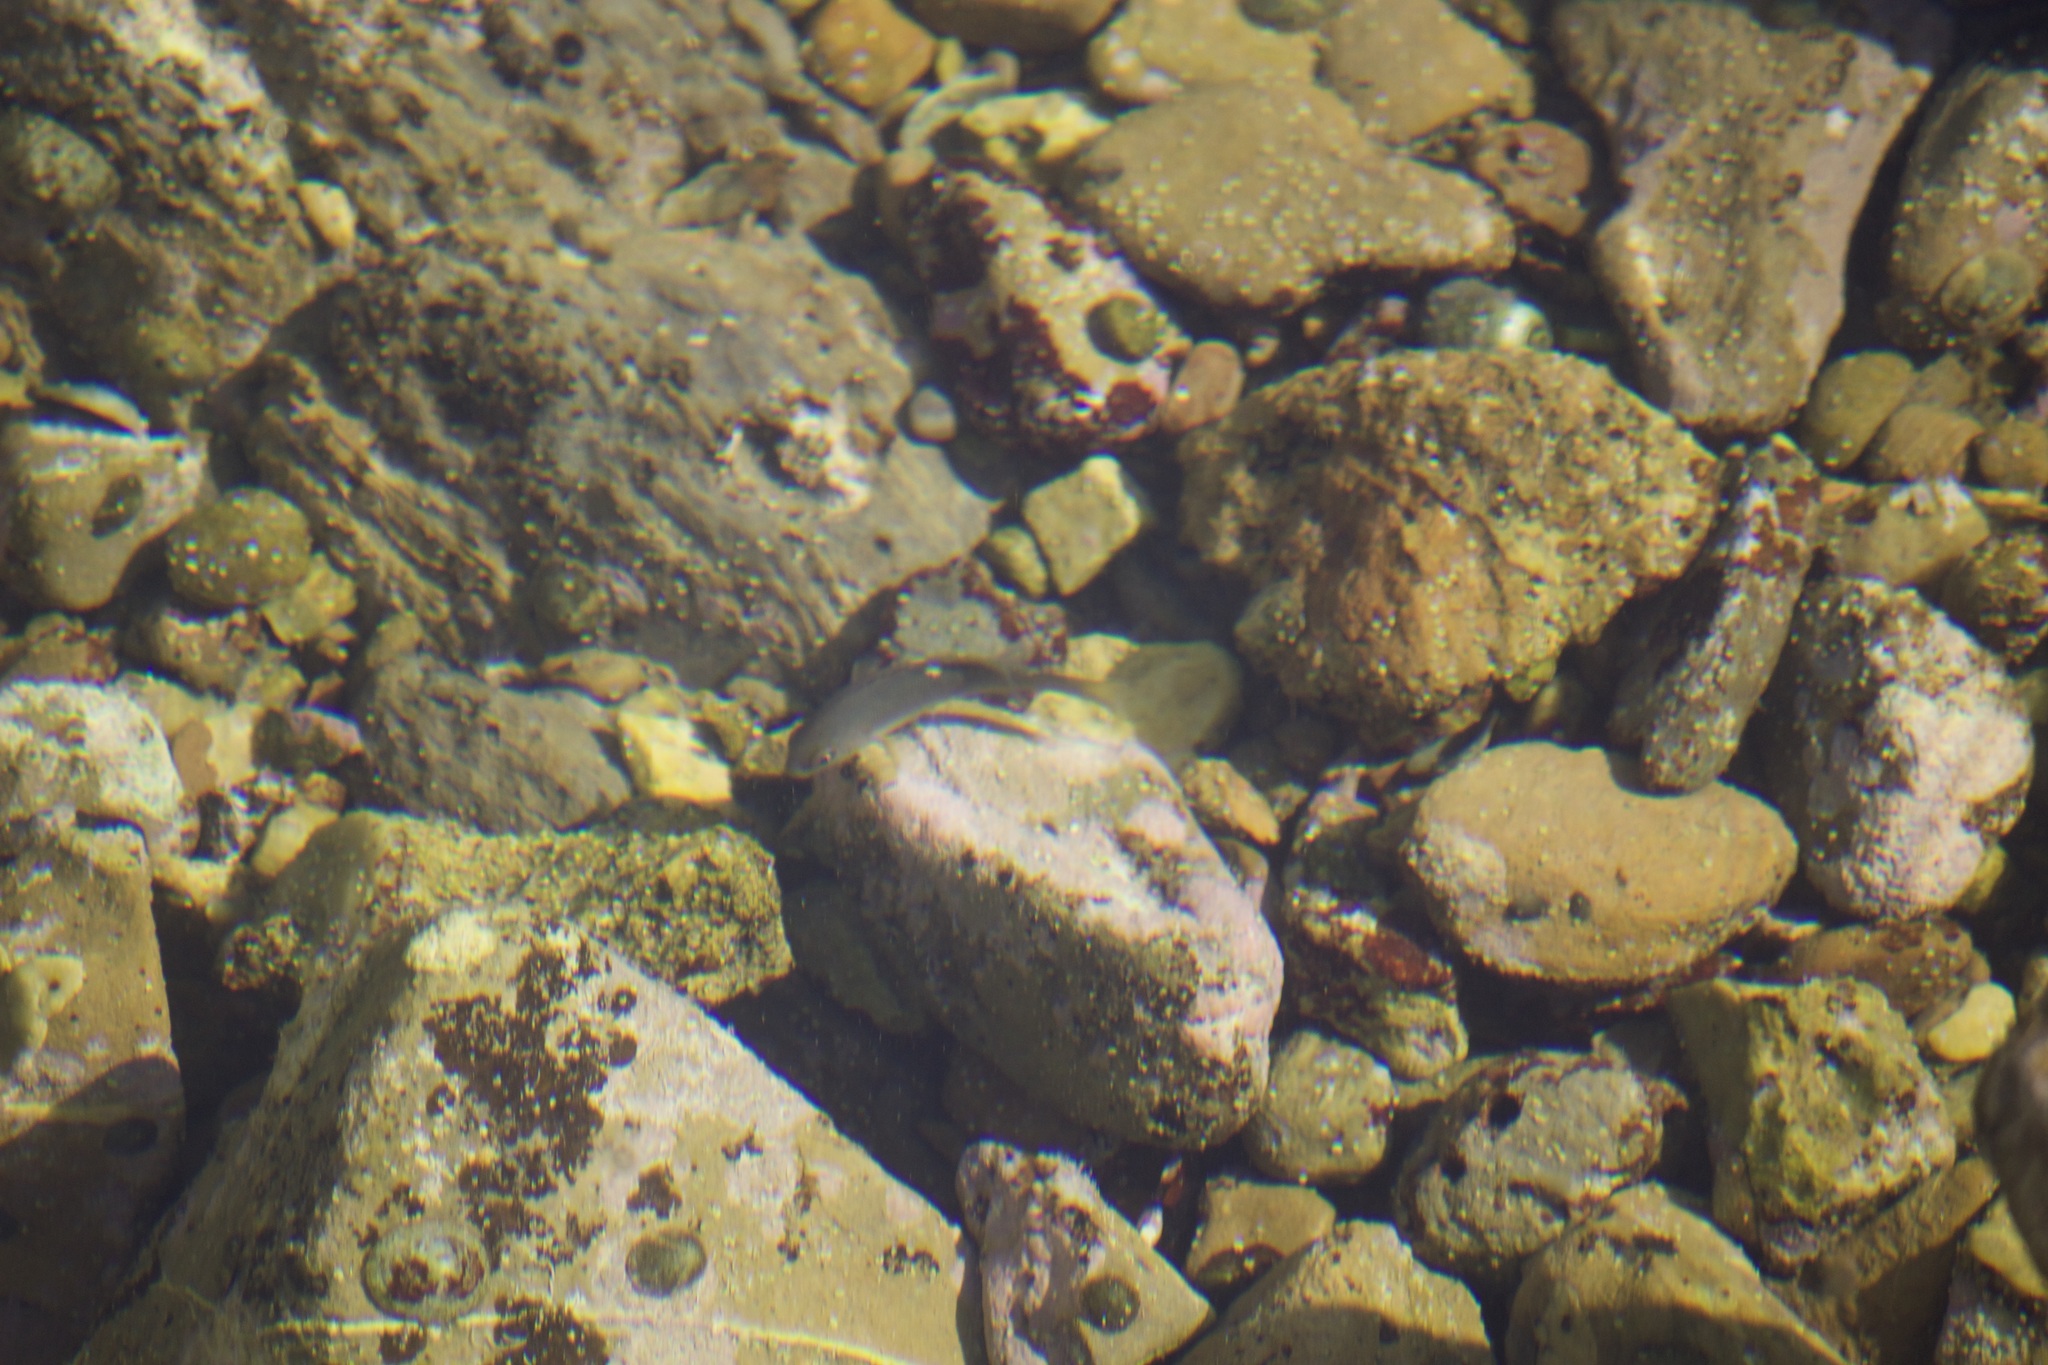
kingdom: Animalia
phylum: Chordata
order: Perciformes
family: Kyphosidae
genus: Girella
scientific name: Girella nigricans
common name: Opaleye
